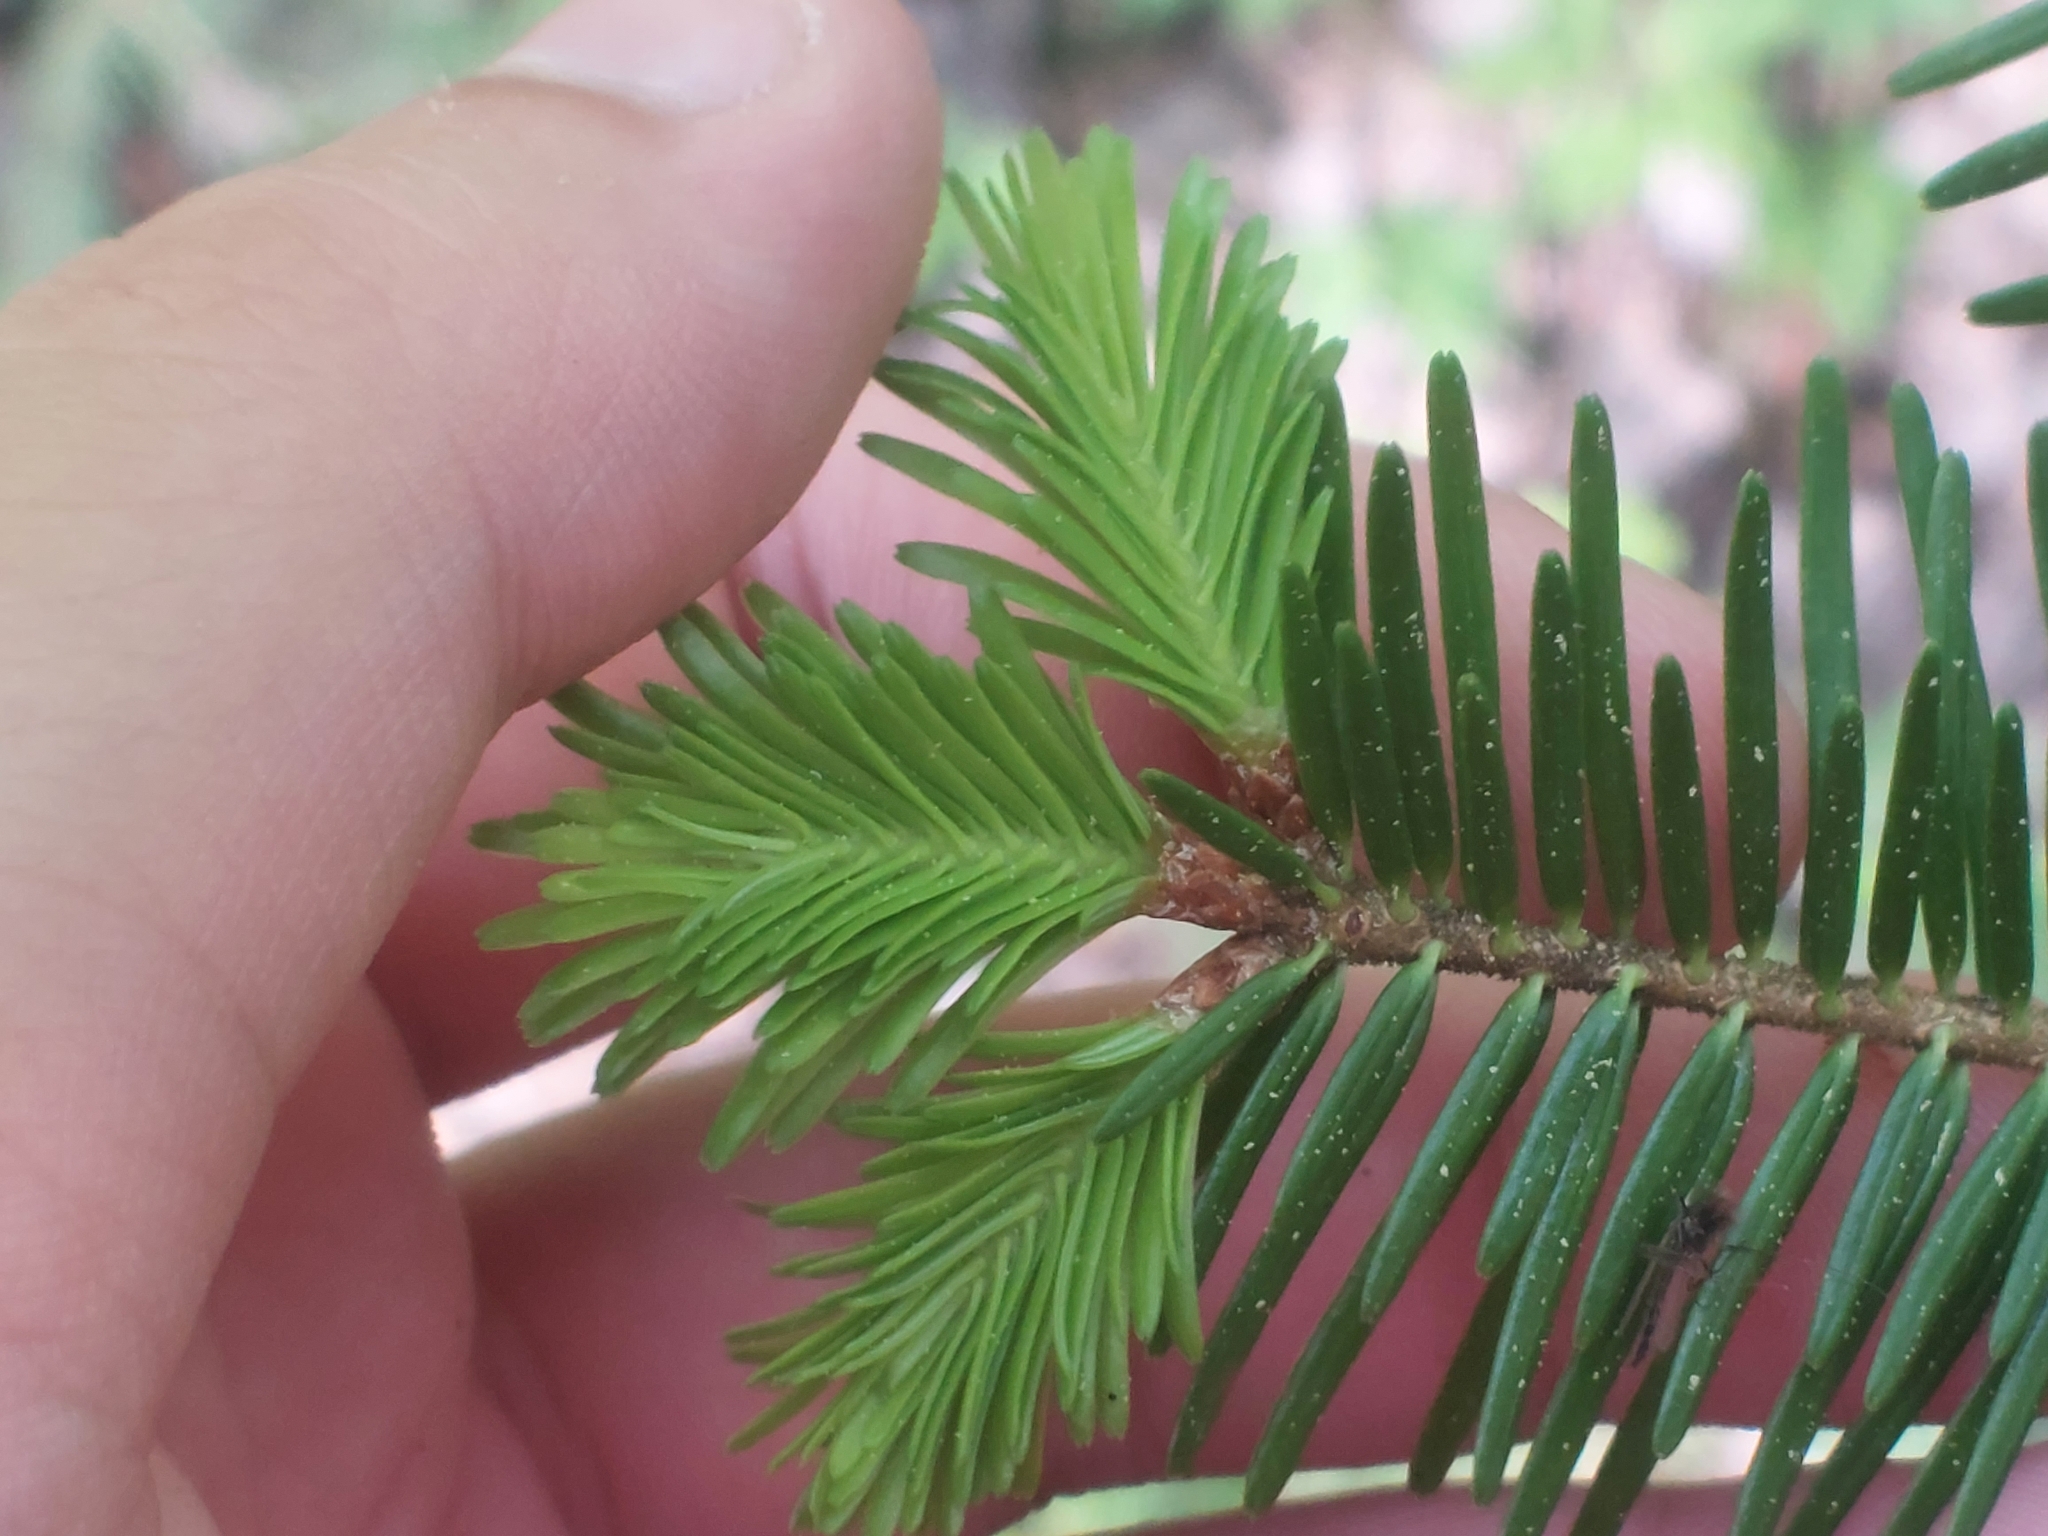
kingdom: Plantae
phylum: Tracheophyta
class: Pinopsida
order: Pinales
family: Pinaceae
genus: Abies
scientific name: Abies alba
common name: Silver fir
